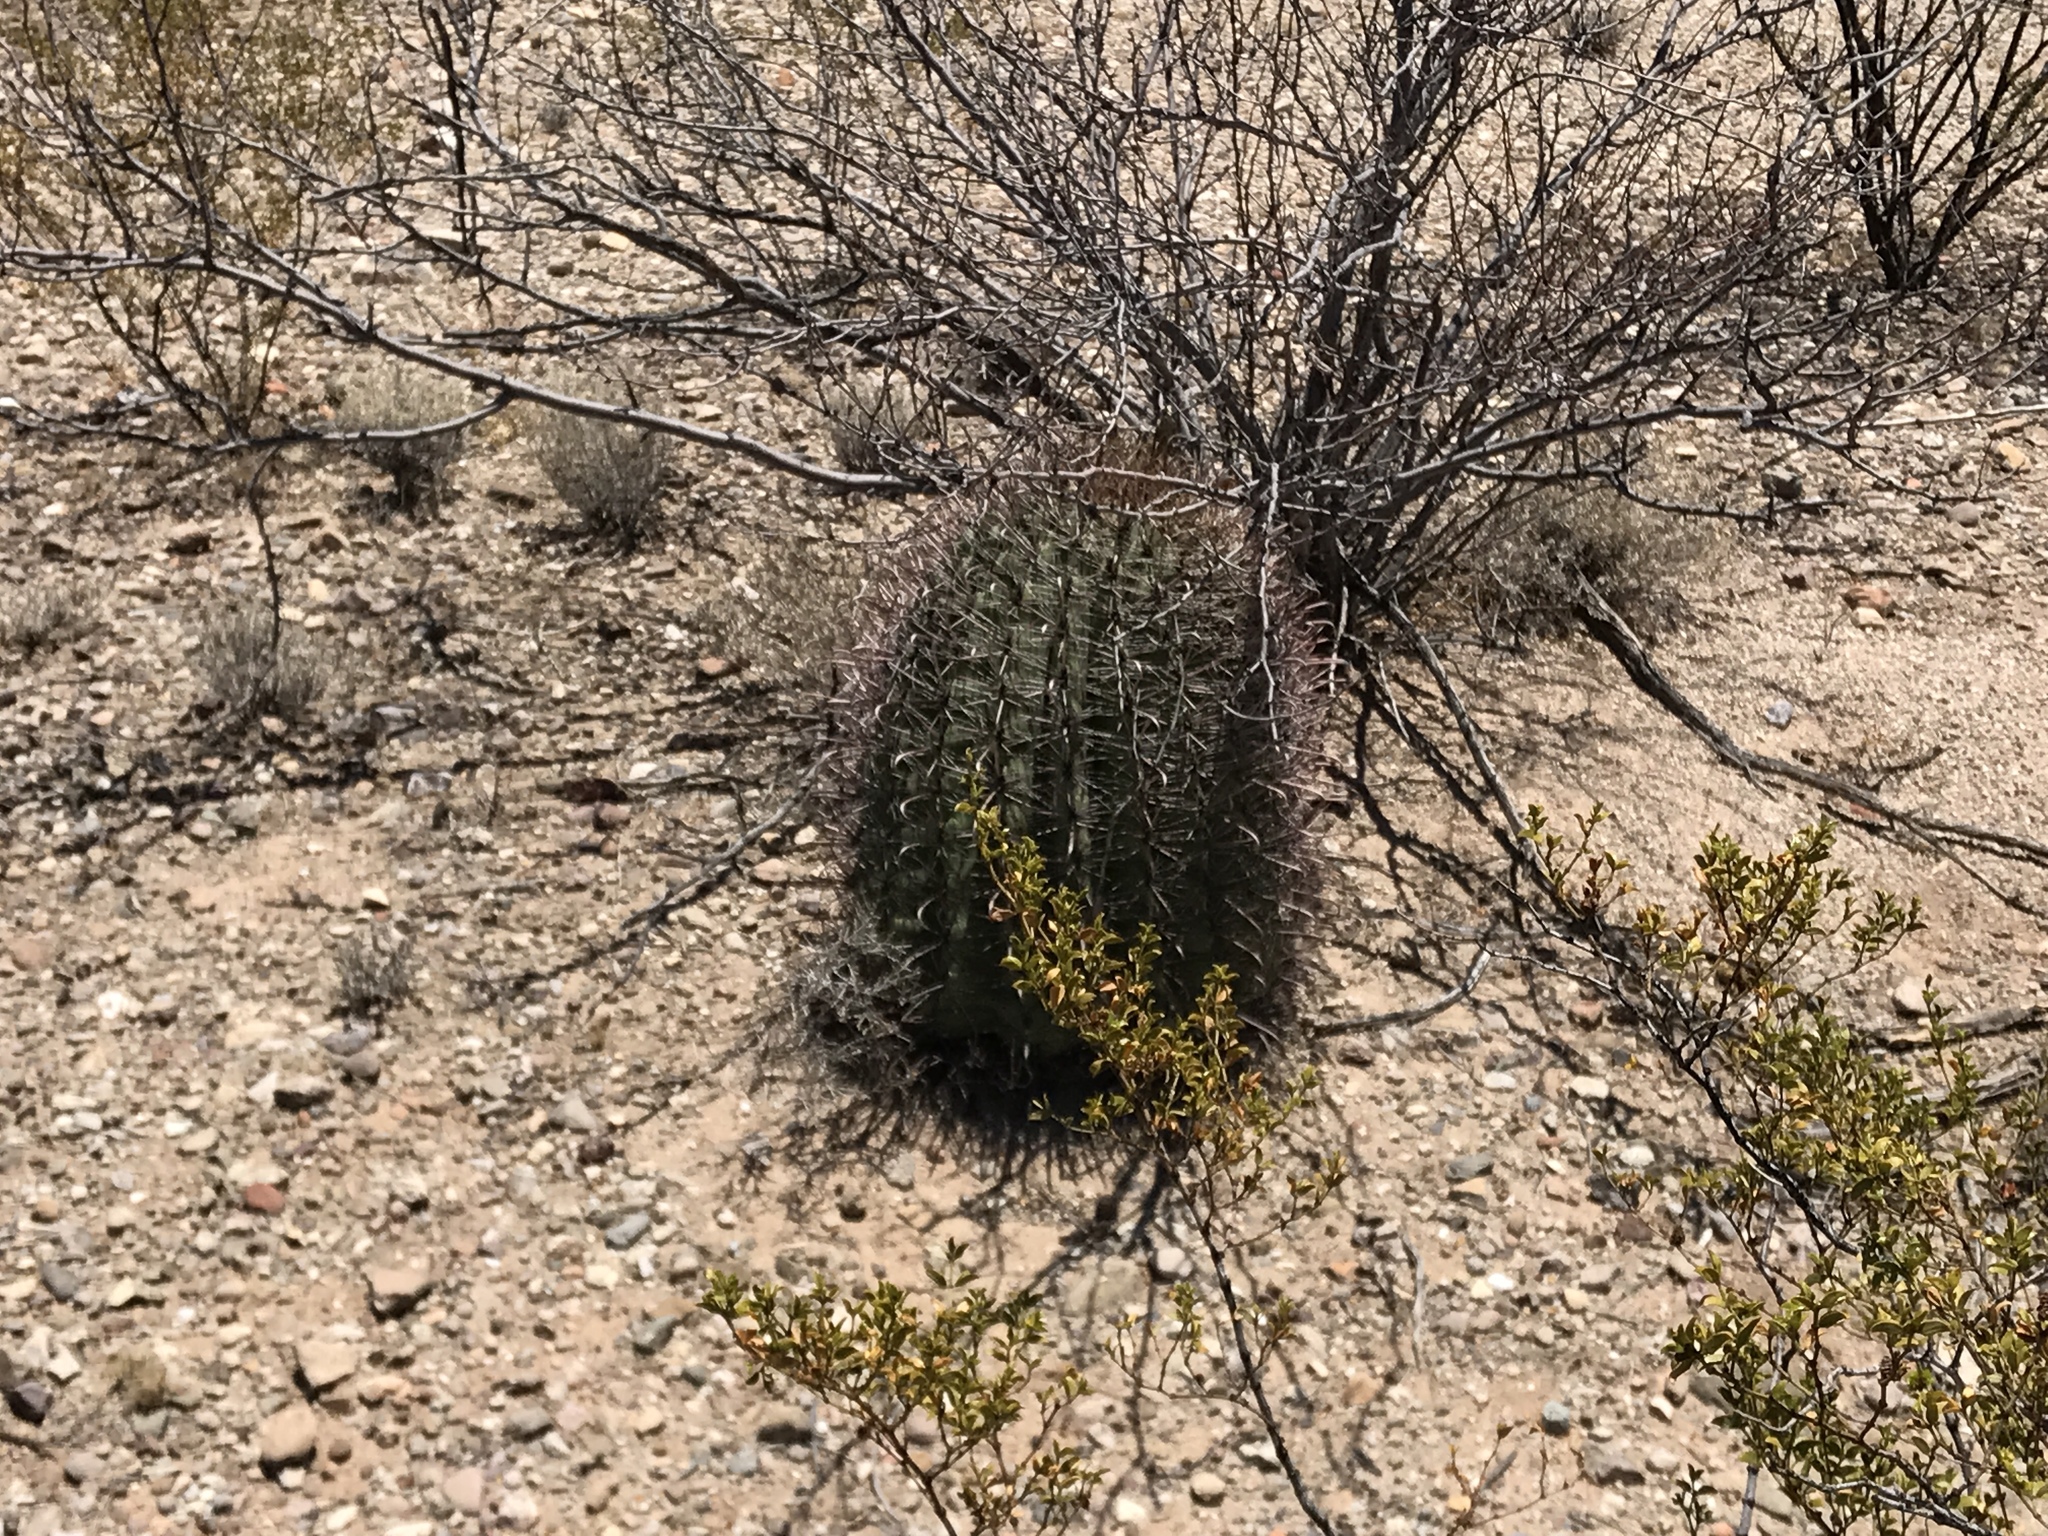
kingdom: Plantae
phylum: Tracheophyta
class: Magnoliopsida
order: Caryophyllales
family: Cactaceae
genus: Ferocactus
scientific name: Ferocactus wislizeni
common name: Candy barrel cactus
